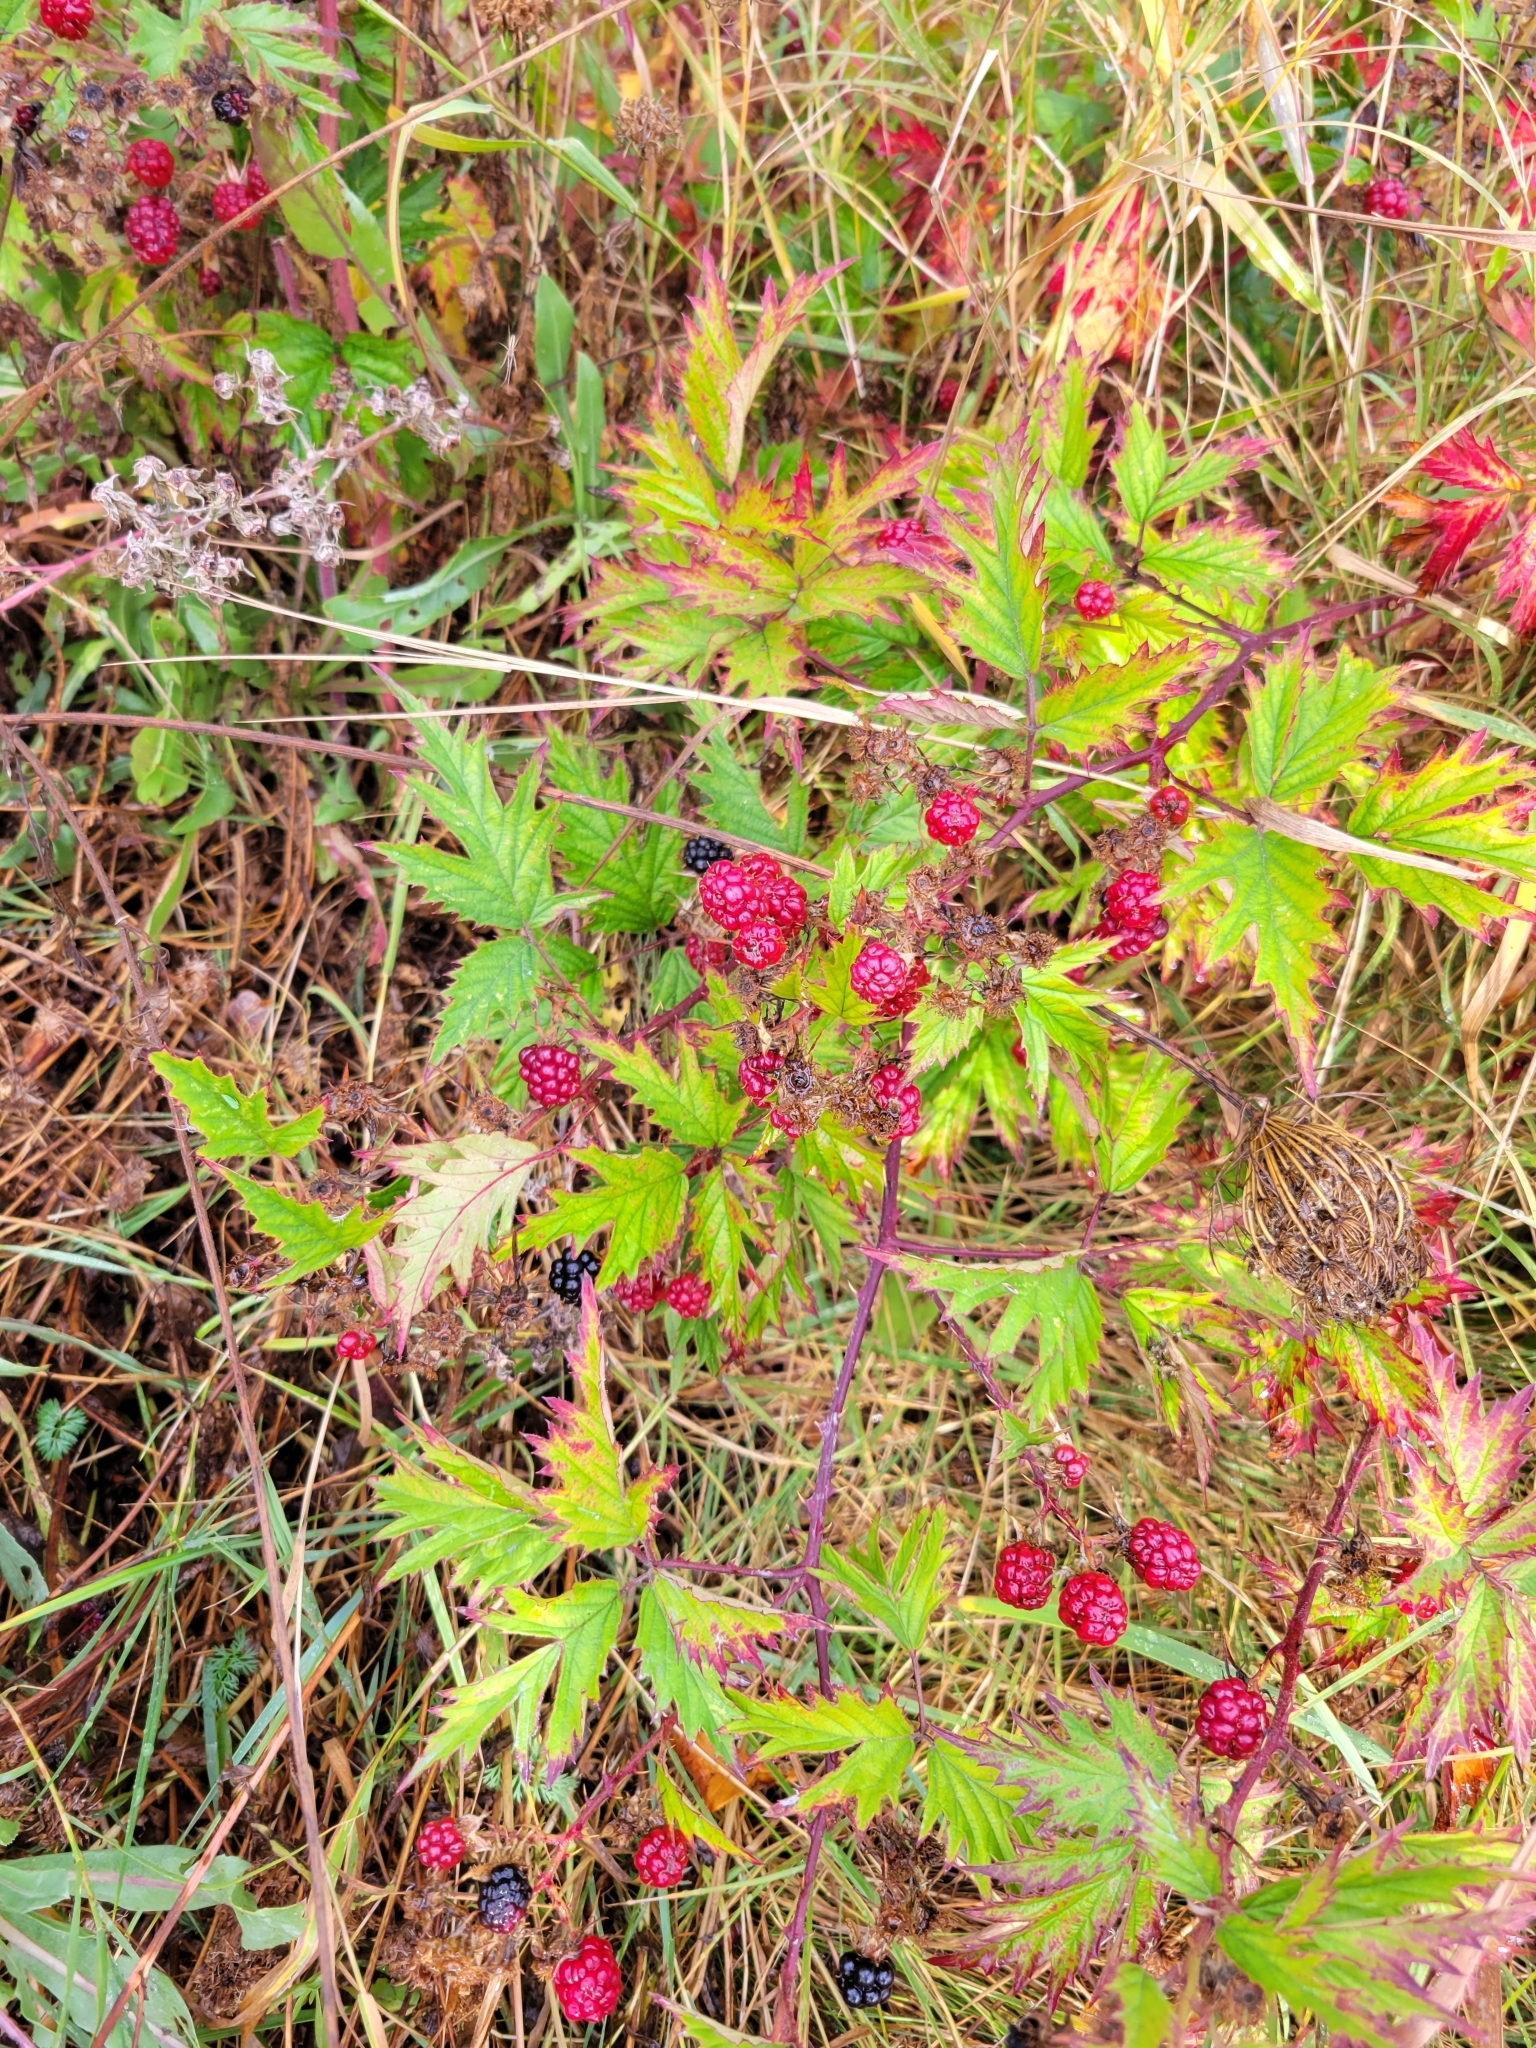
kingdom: Plantae
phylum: Tracheophyta
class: Magnoliopsida
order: Rosales
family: Rosaceae
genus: Rubus
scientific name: Rubus laciniatus
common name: Evergreen blackberry
